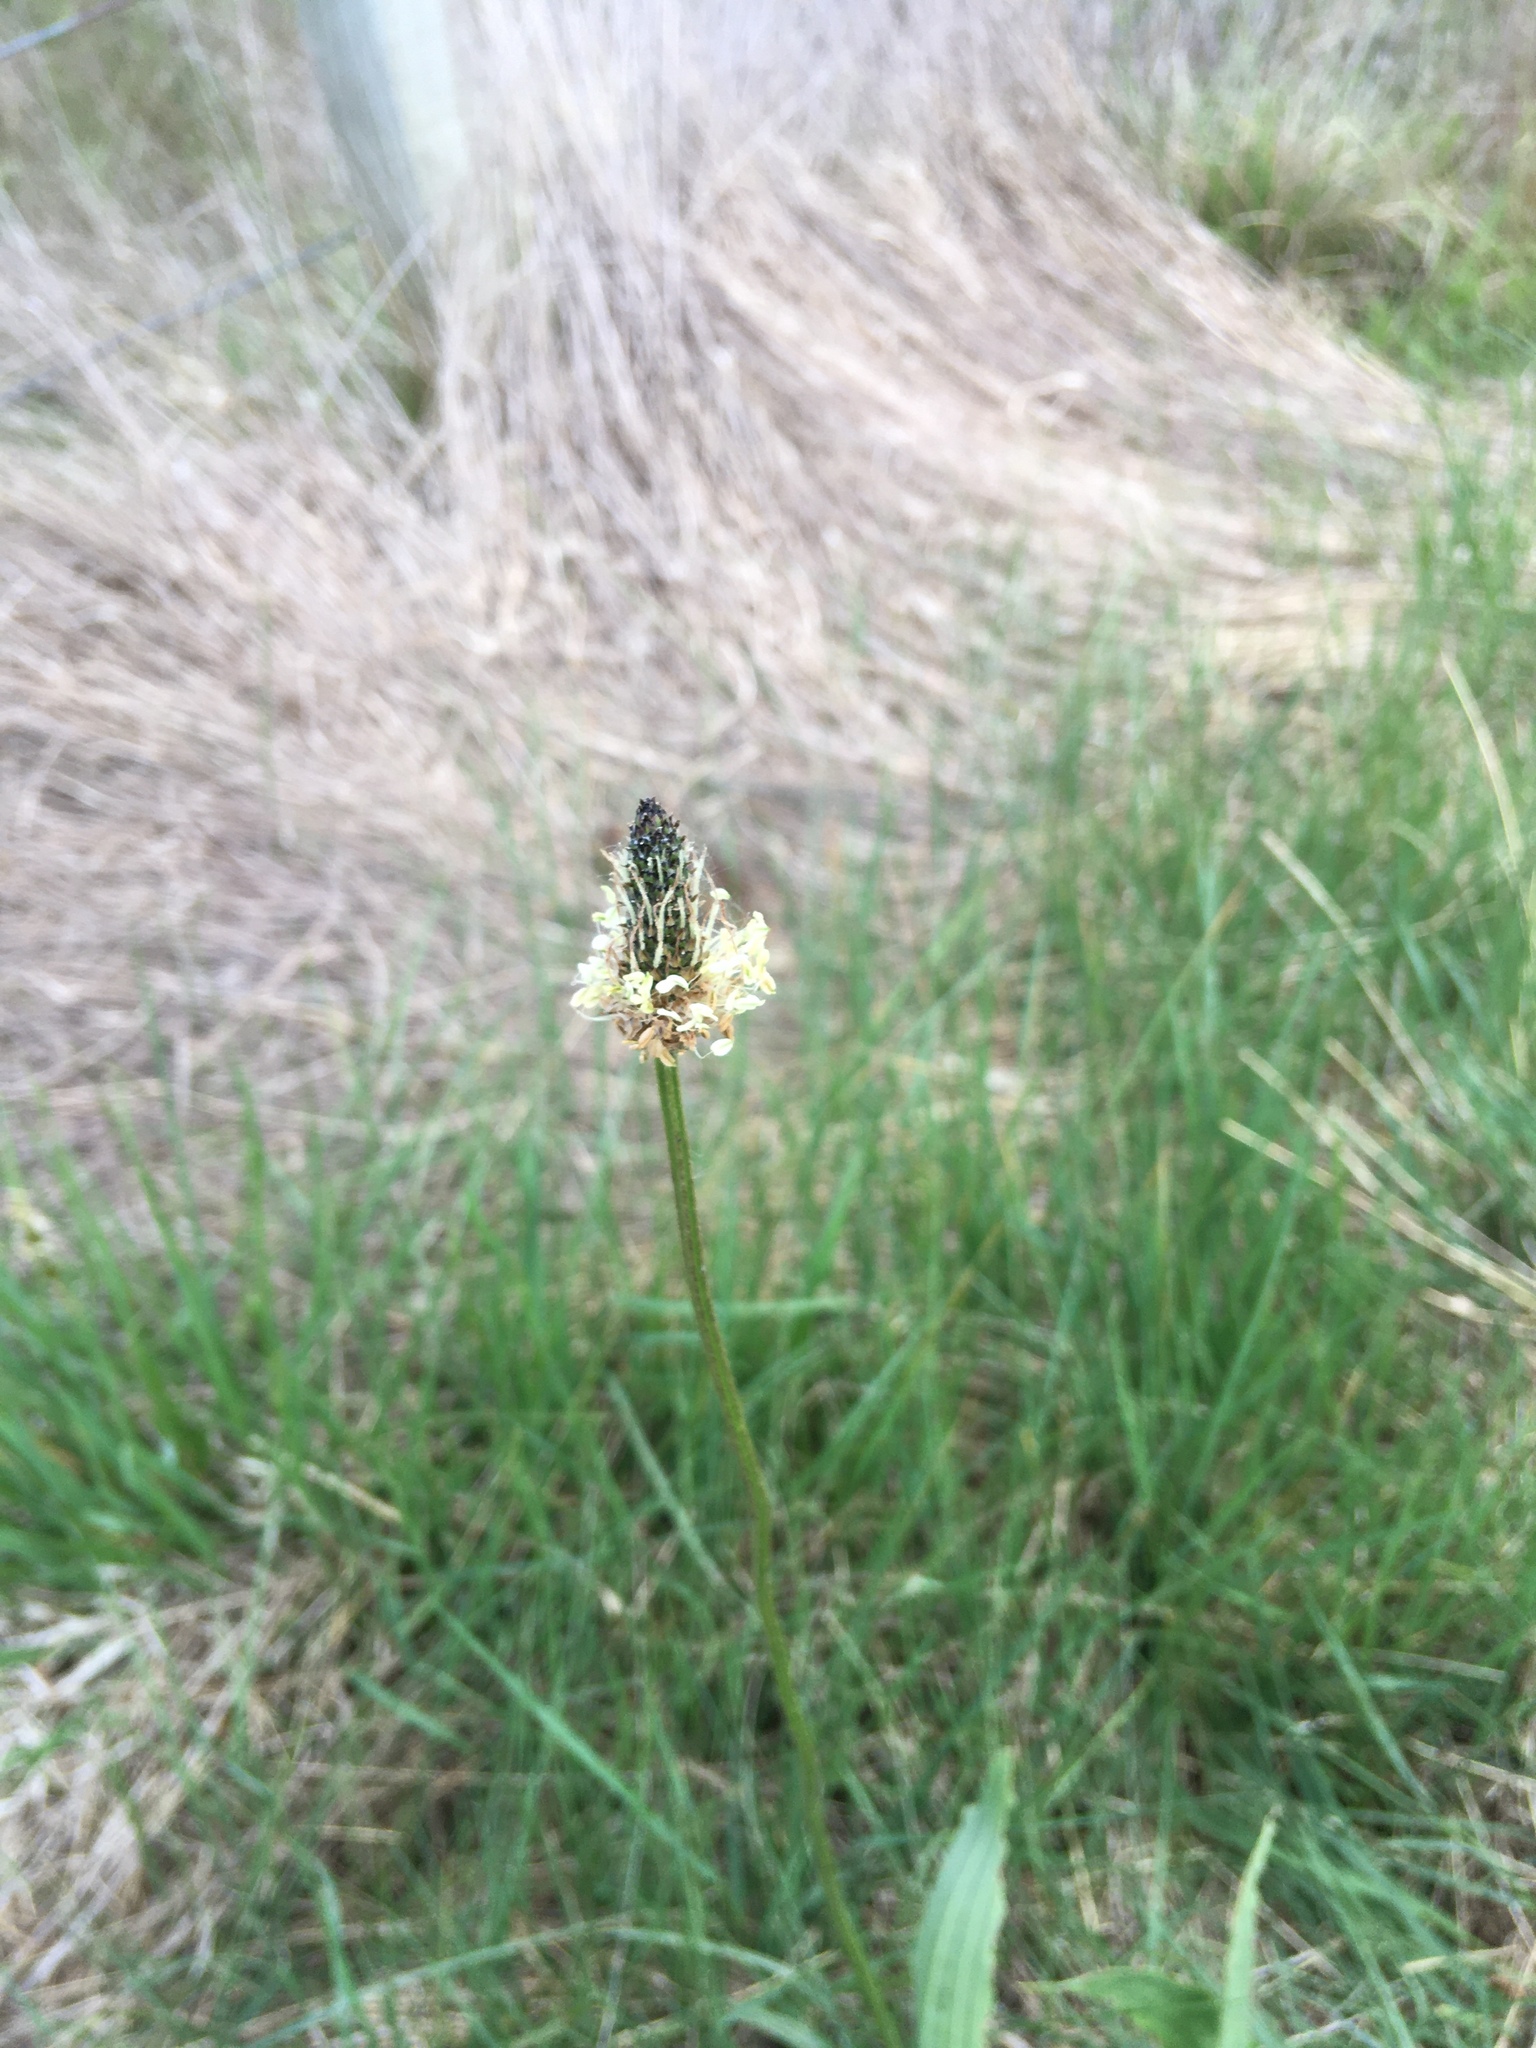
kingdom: Plantae
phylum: Tracheophyta
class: Magnoliopsida
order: Lamiales
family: Plantaginaceae
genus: Plantago
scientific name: Plantago lanceolata
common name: Ribwort plantain
